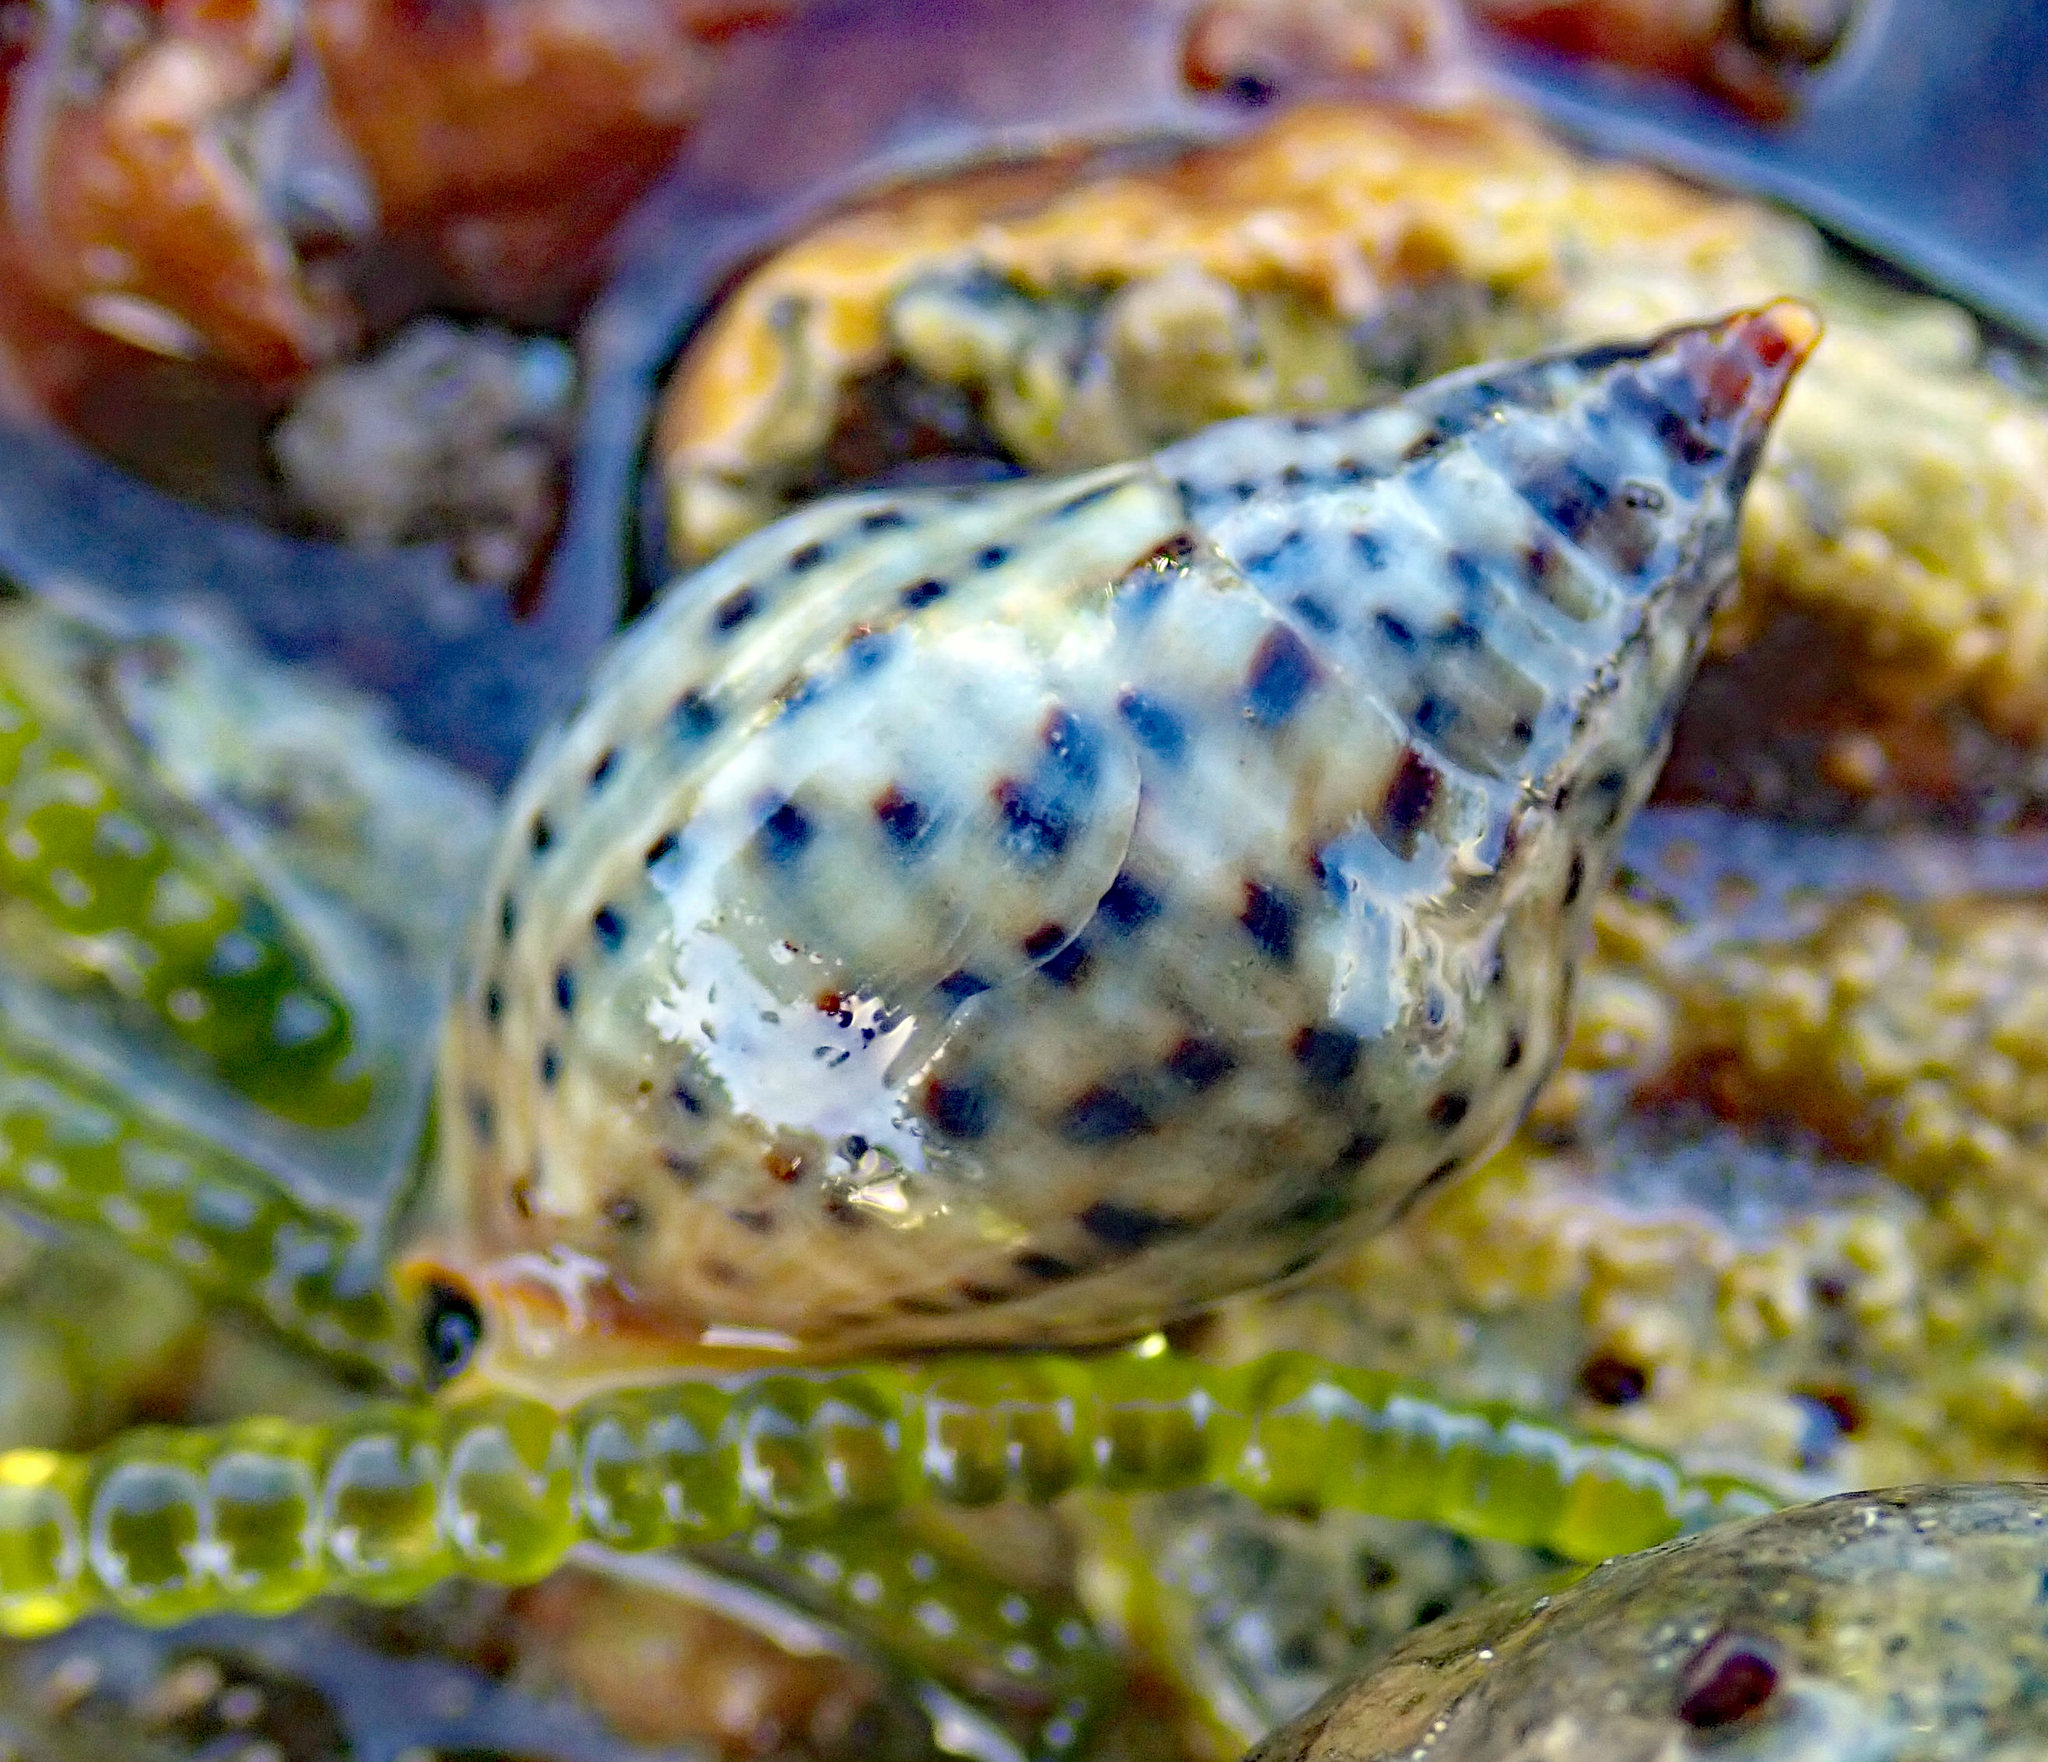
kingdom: Animalia
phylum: Mollusca
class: Gastropoda
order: Neogastropoda
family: Cominellidae
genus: Cominella
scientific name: Cominella maculosa
